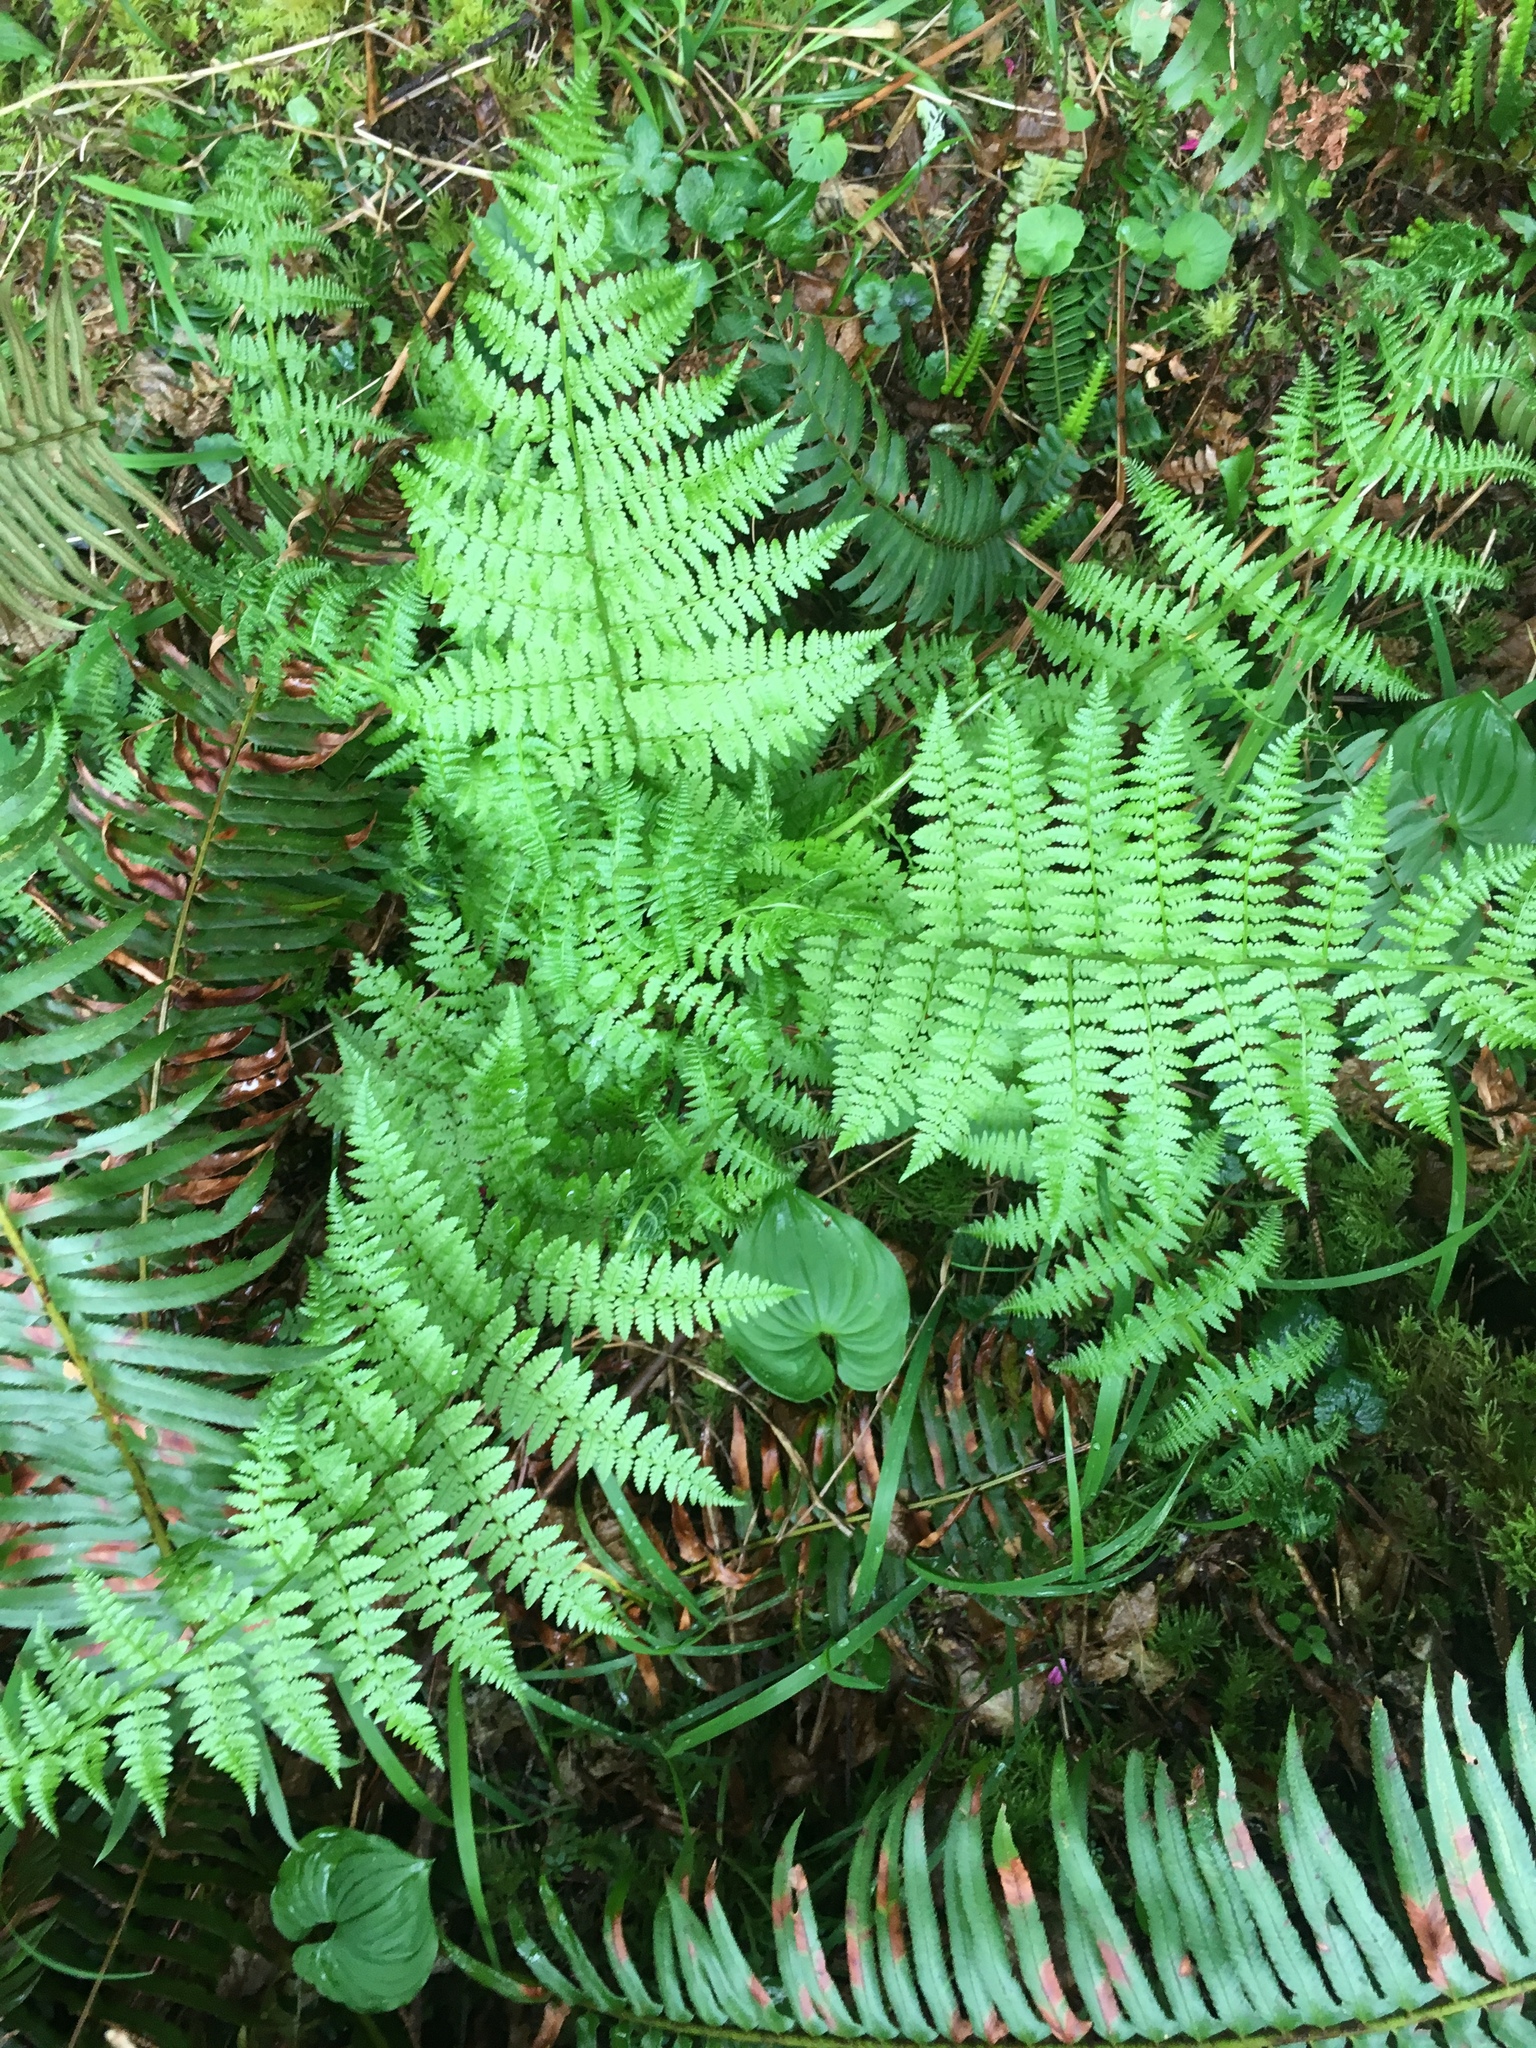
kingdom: Plantae
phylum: Tracheophyta
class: Polypodiopsida
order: Polypodiales
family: Athyriaceae
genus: Athyrium
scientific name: Athyrium cyclosorum
